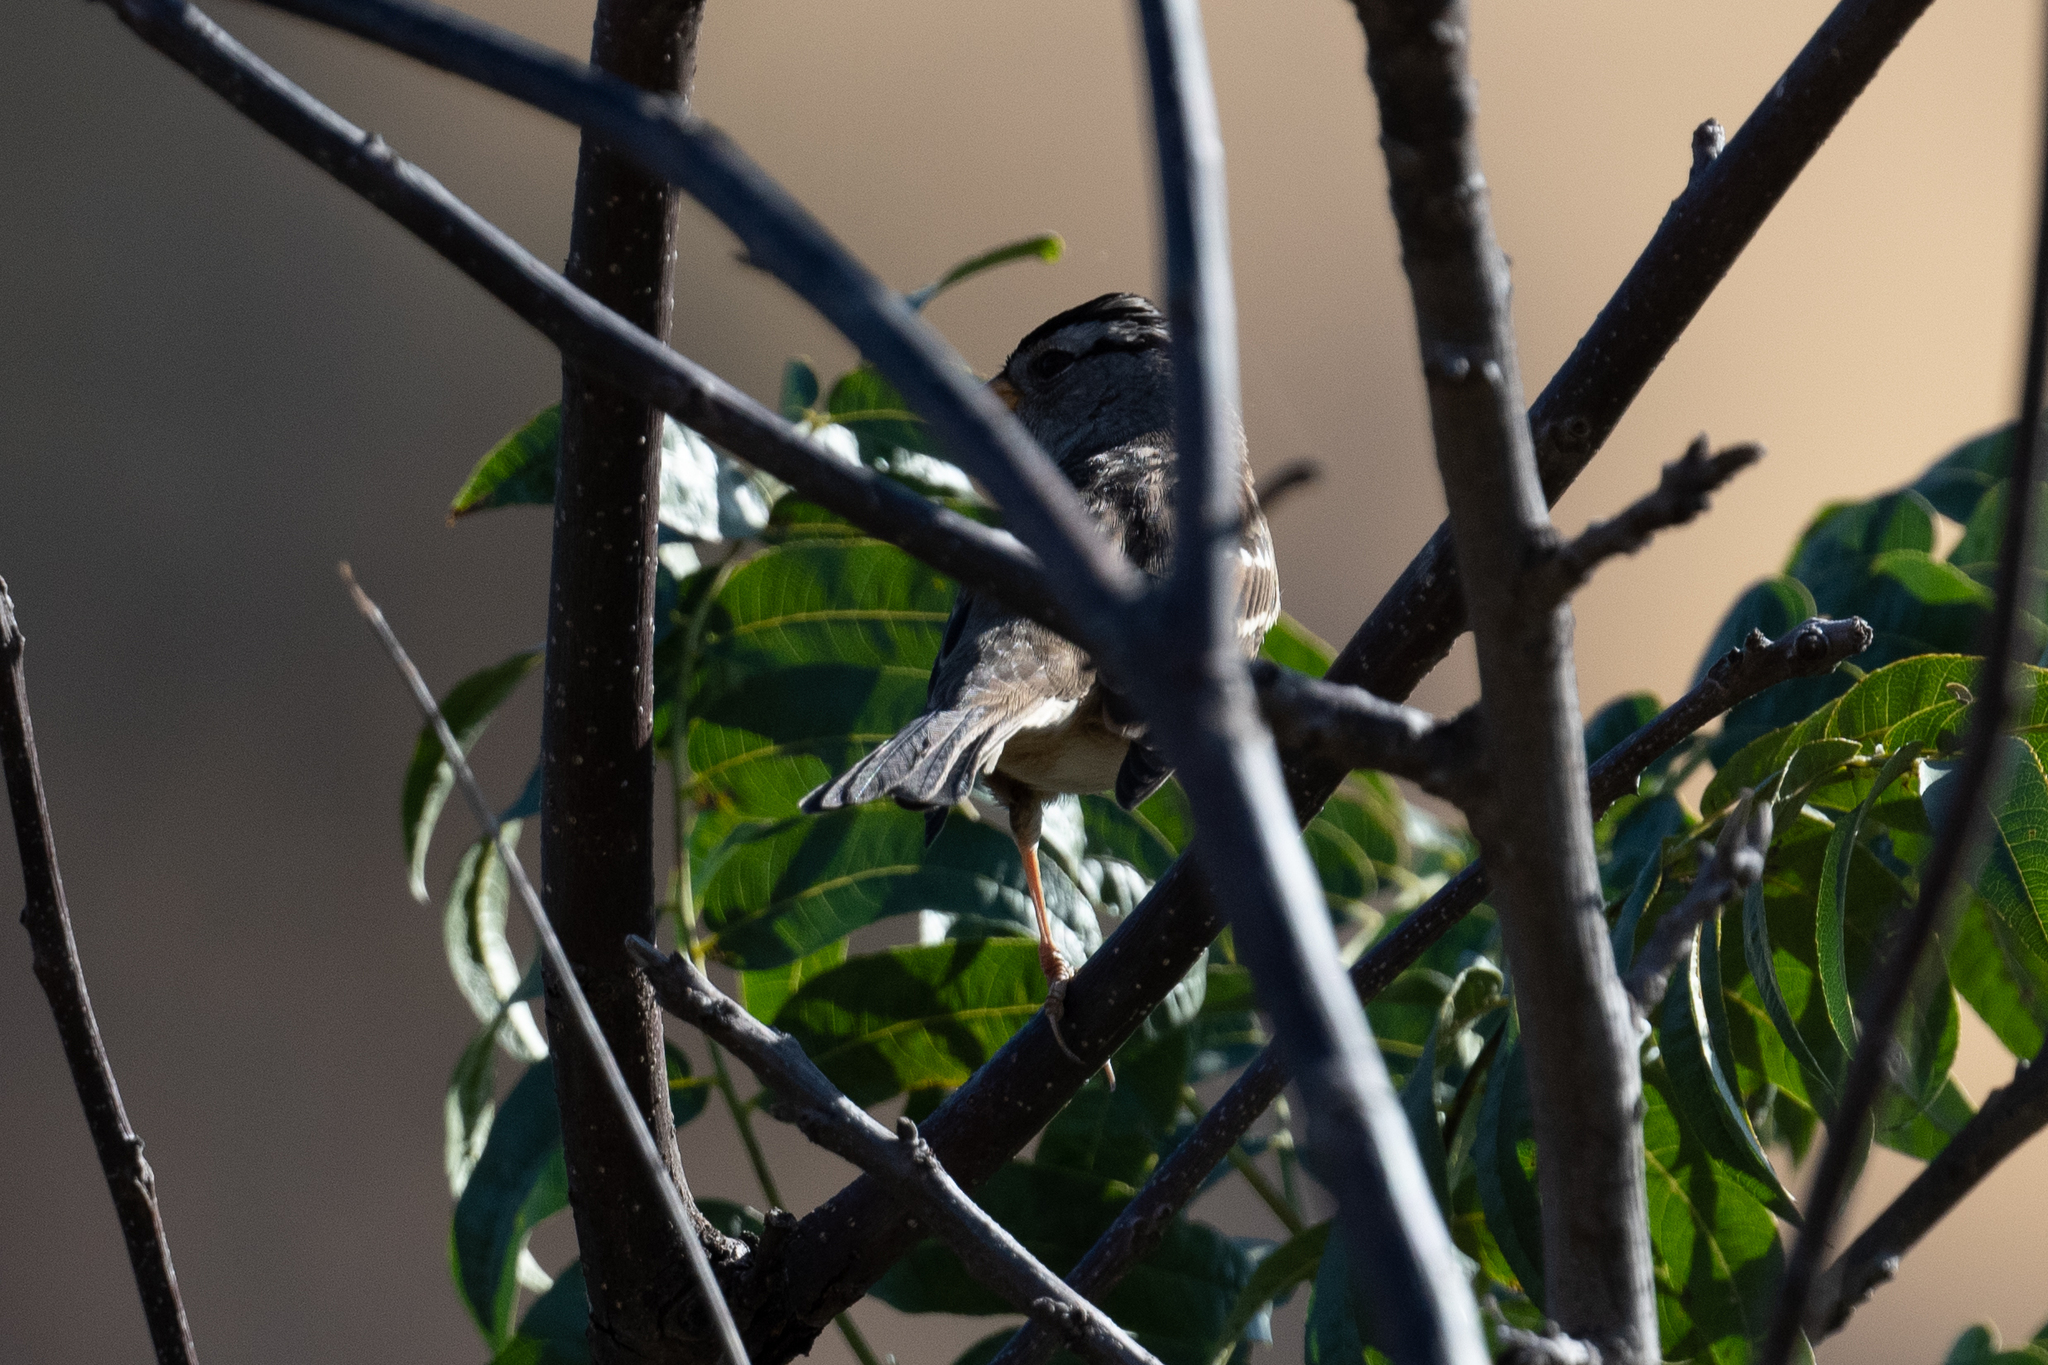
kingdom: Animalia
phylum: Chordata
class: Aves
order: Passeriformes
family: Passerellidae
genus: Zonotrichia
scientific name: Zonotrichia leucophrys
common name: White-crowned sparrow
